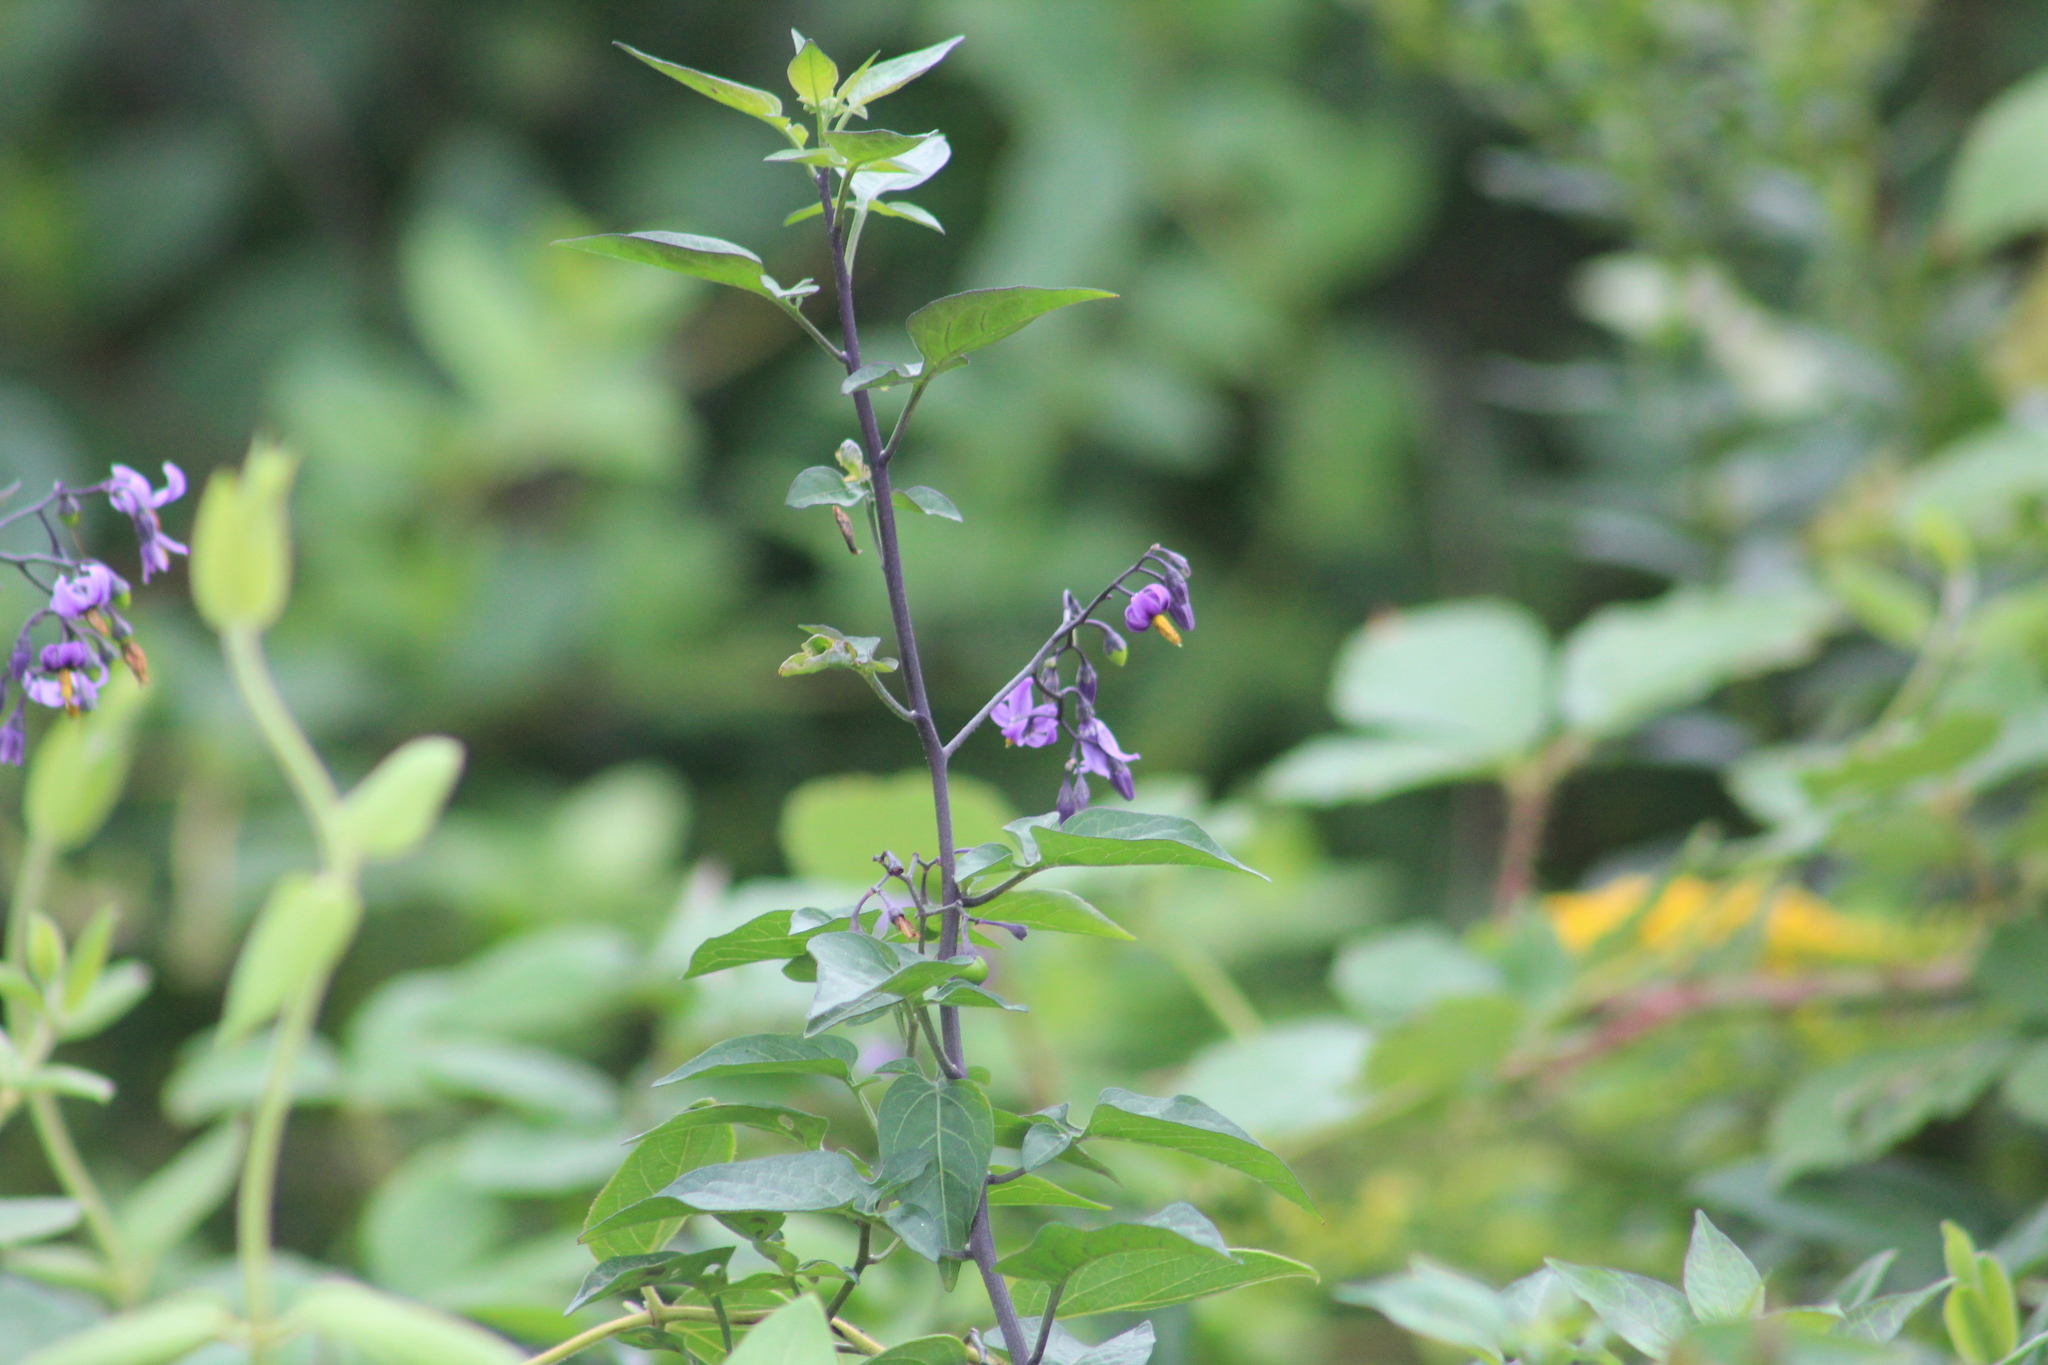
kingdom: Plantae
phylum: Tracheophyta
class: Magnoliopsida
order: Solanales
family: Solanaceae
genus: Solanum
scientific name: Solanum dulcamara
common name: Climbing nightshade
